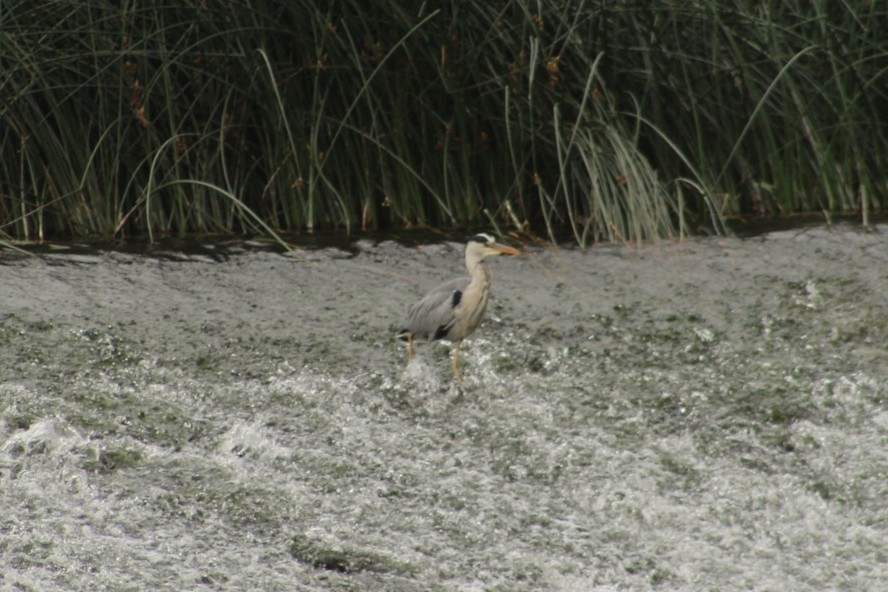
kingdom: Animalia
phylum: Chordata
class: Aves
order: Pelecaniformes
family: Ardeidae
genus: Ardea
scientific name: Ardea cinerea
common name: Grey heron
